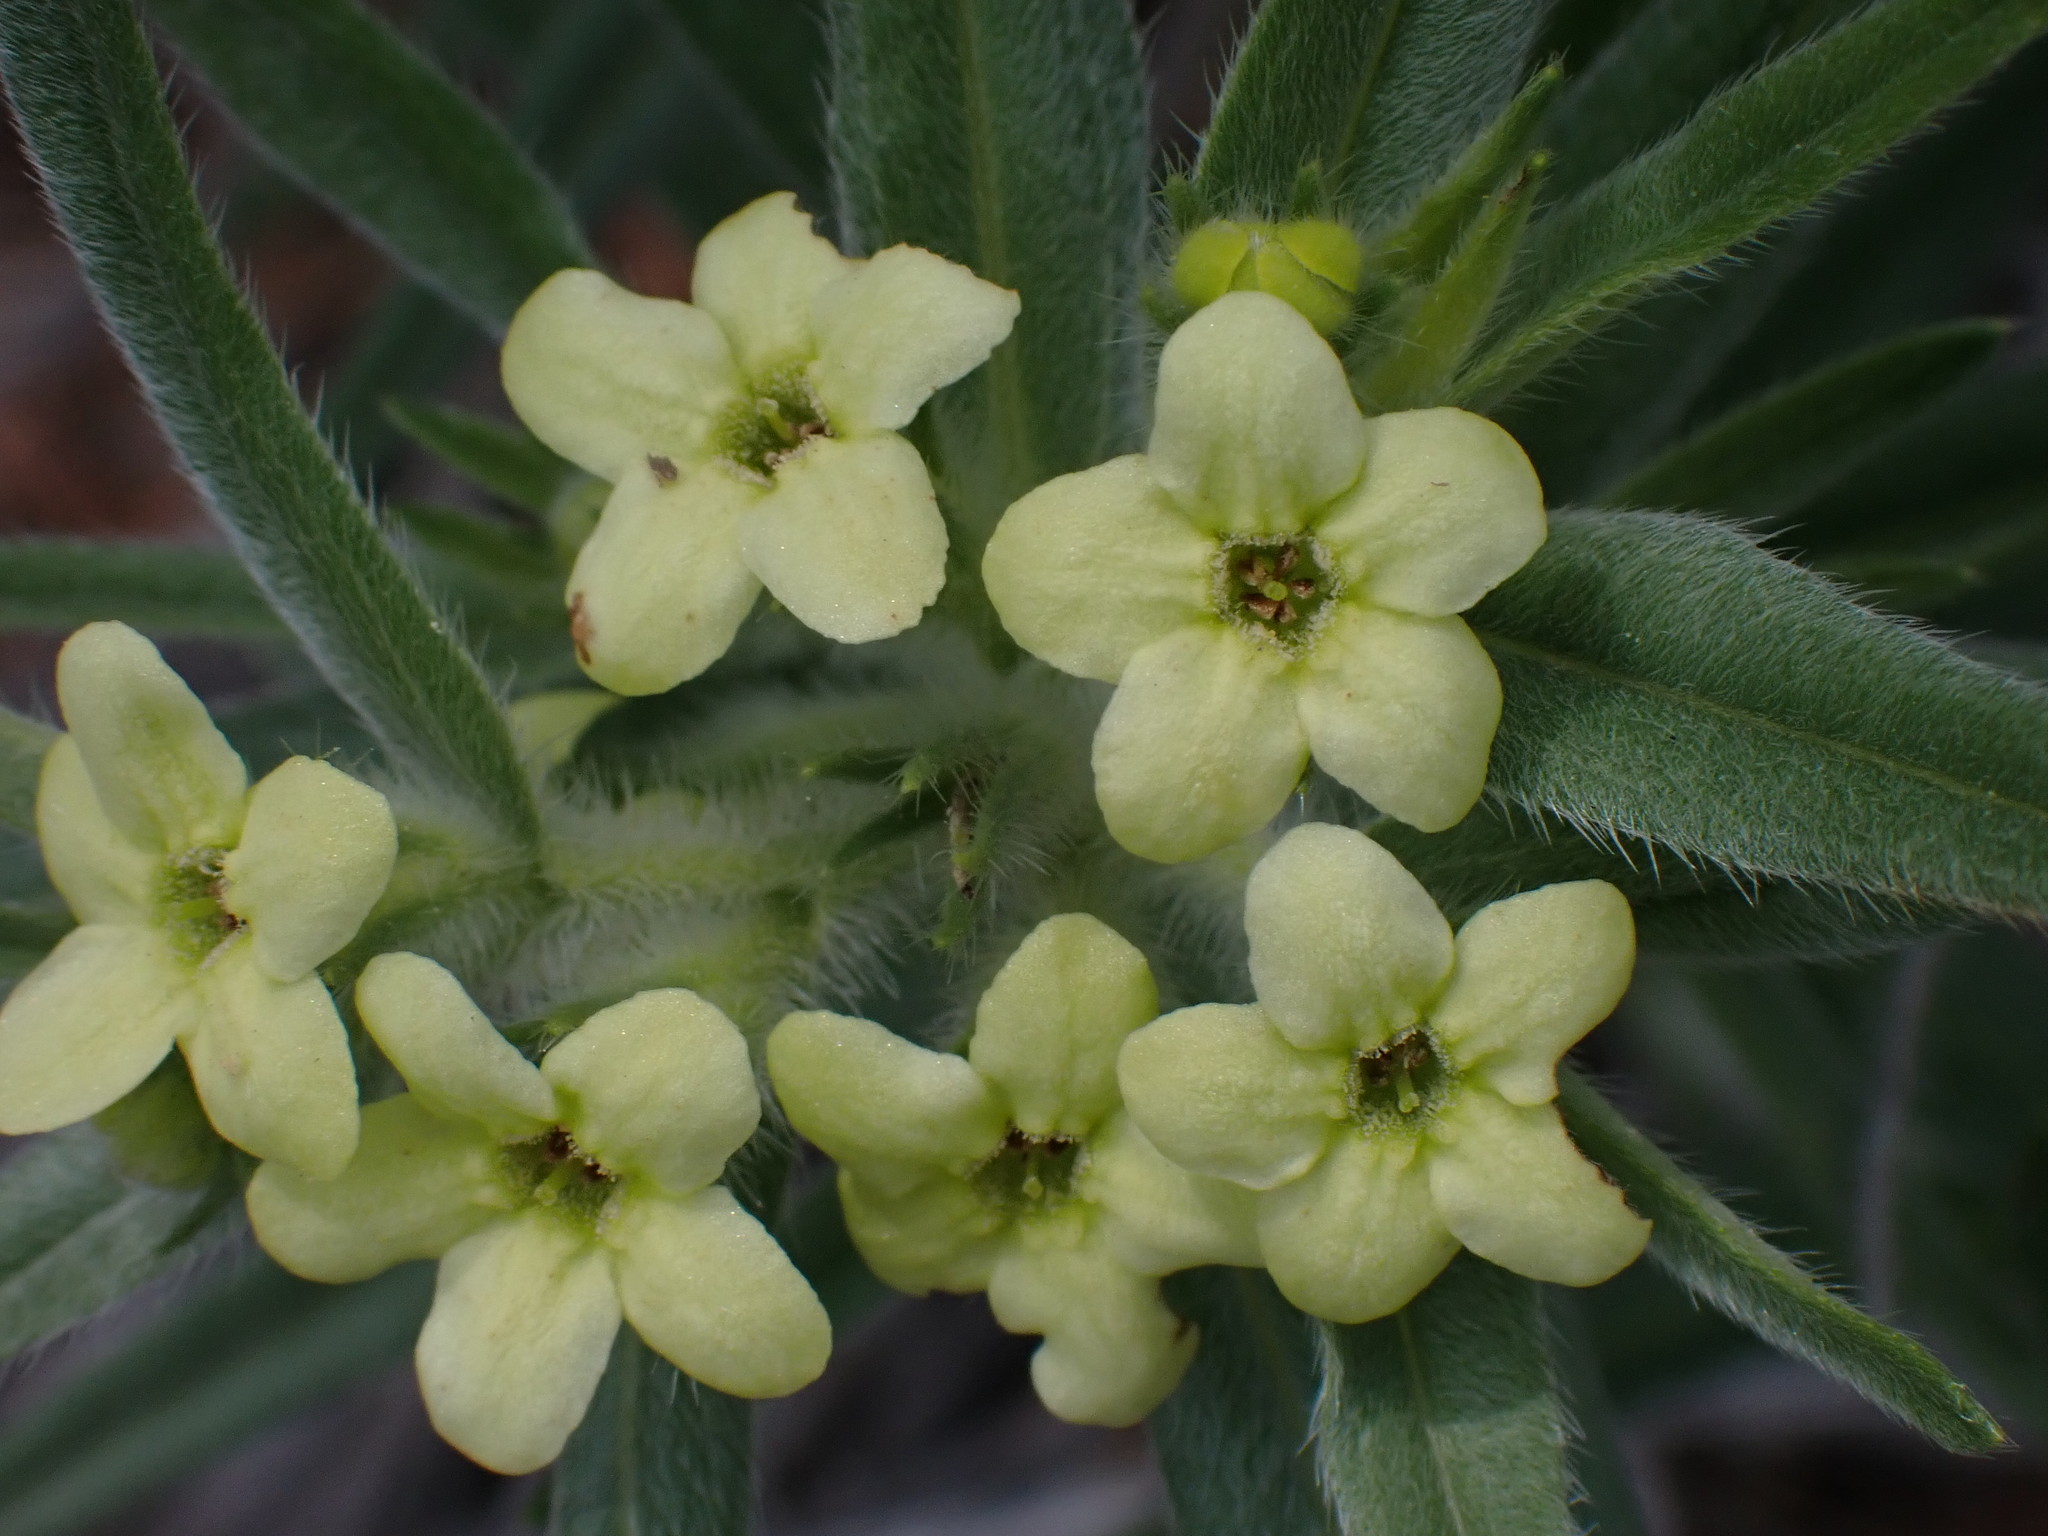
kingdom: Plantae
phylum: Tracheophyta
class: Magnoliopsida
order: Boraginales
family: Boraginaceae
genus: Lithospermum
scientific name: Lithospermum ruderale
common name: Western gromwell
